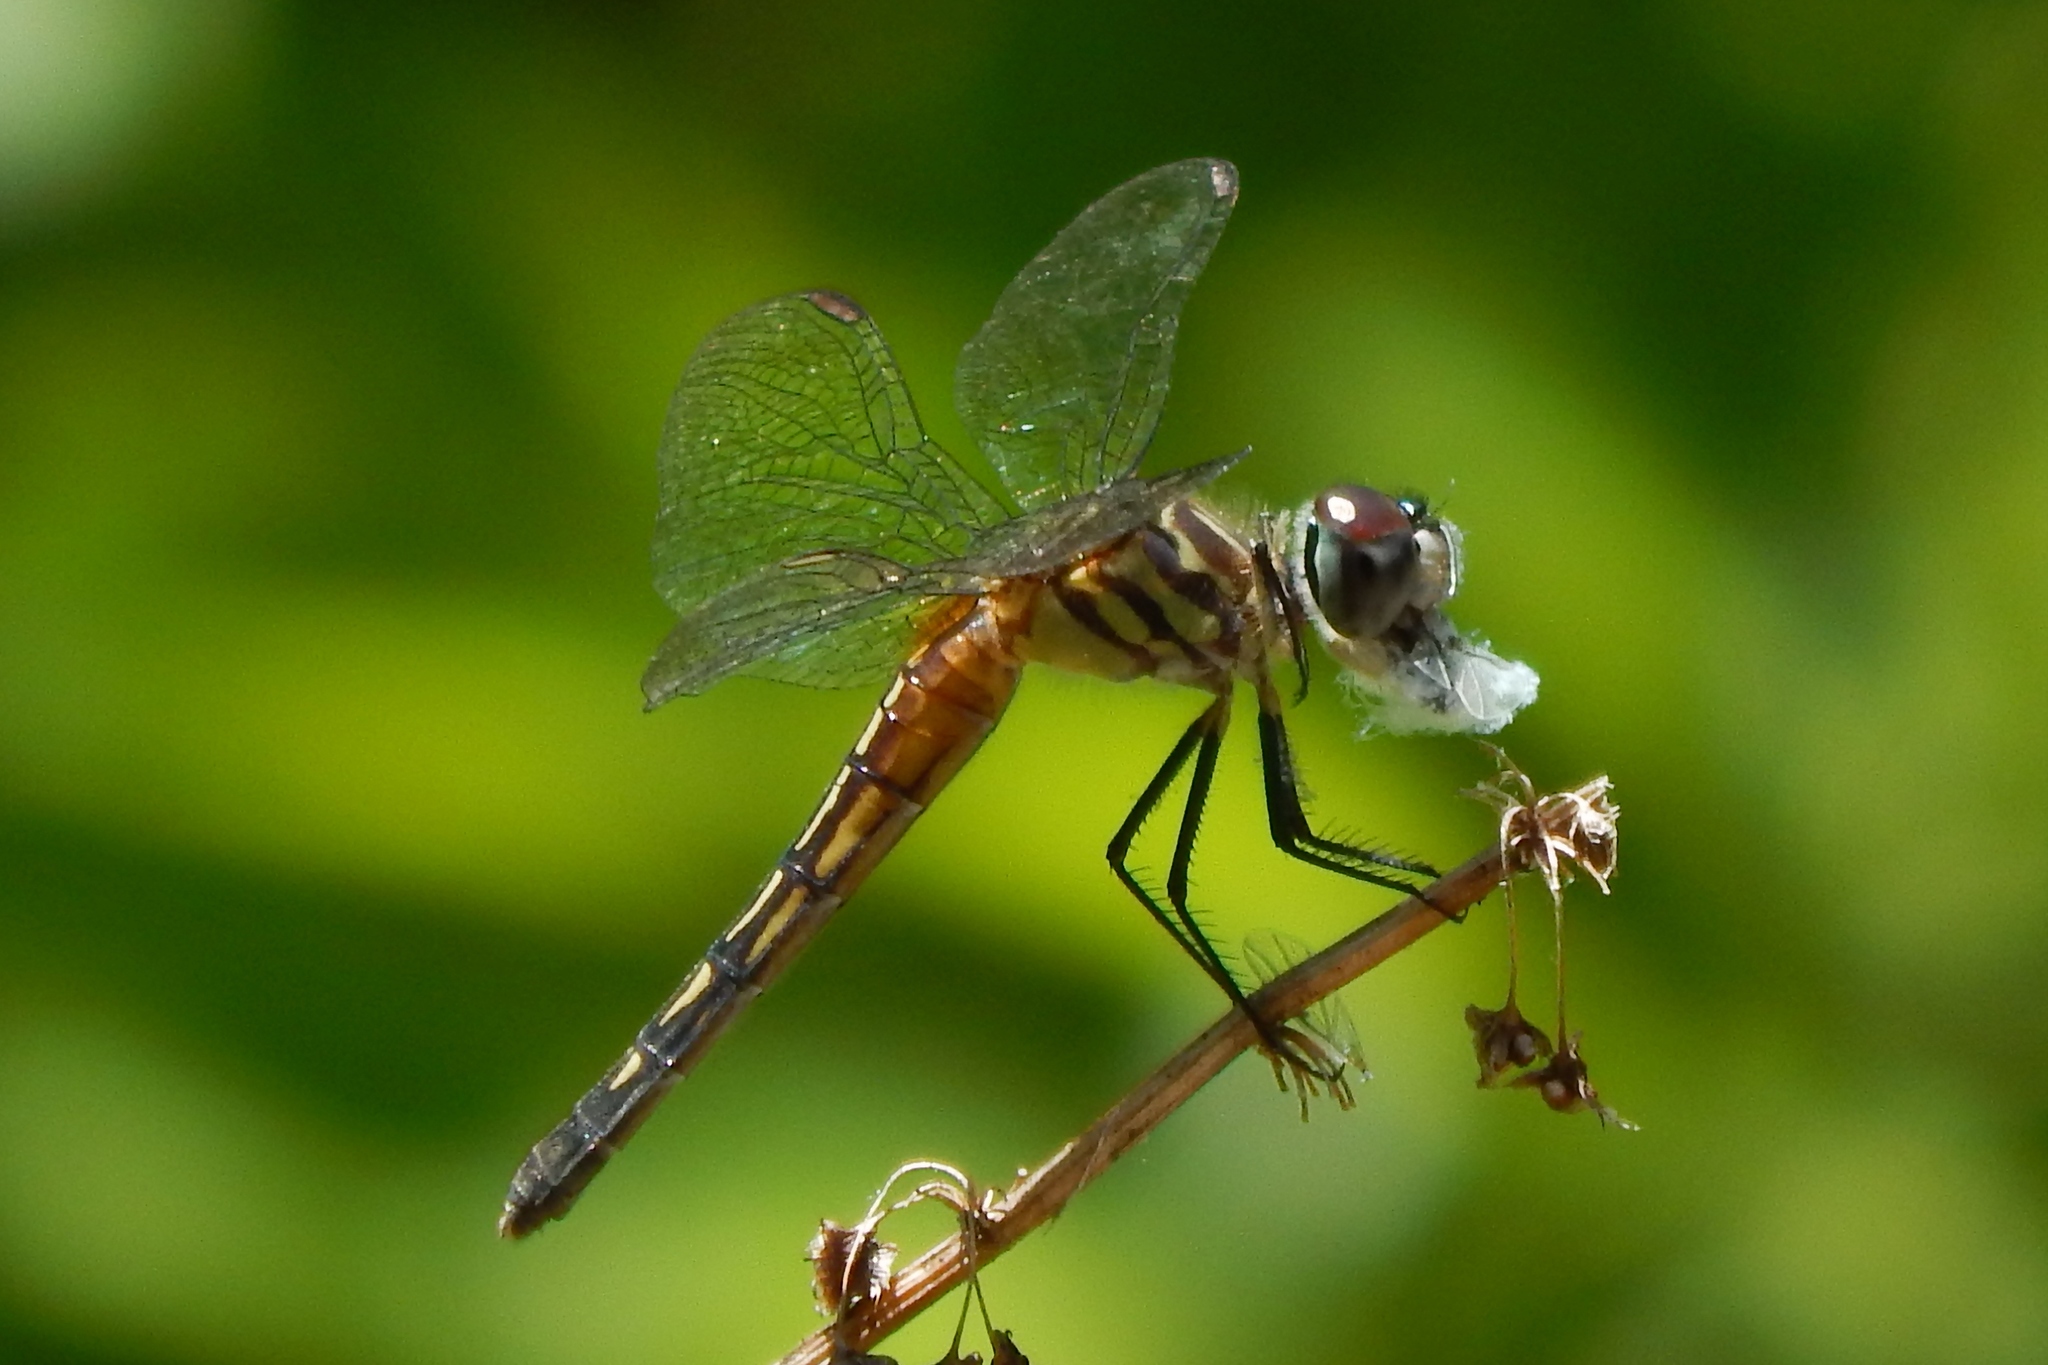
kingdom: Animalia
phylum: Arthropoda
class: Insecta
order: Odonata
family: Libellulidae
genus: Pachydiplax
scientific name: Pachydiplax longipennis
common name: Blue dasher
